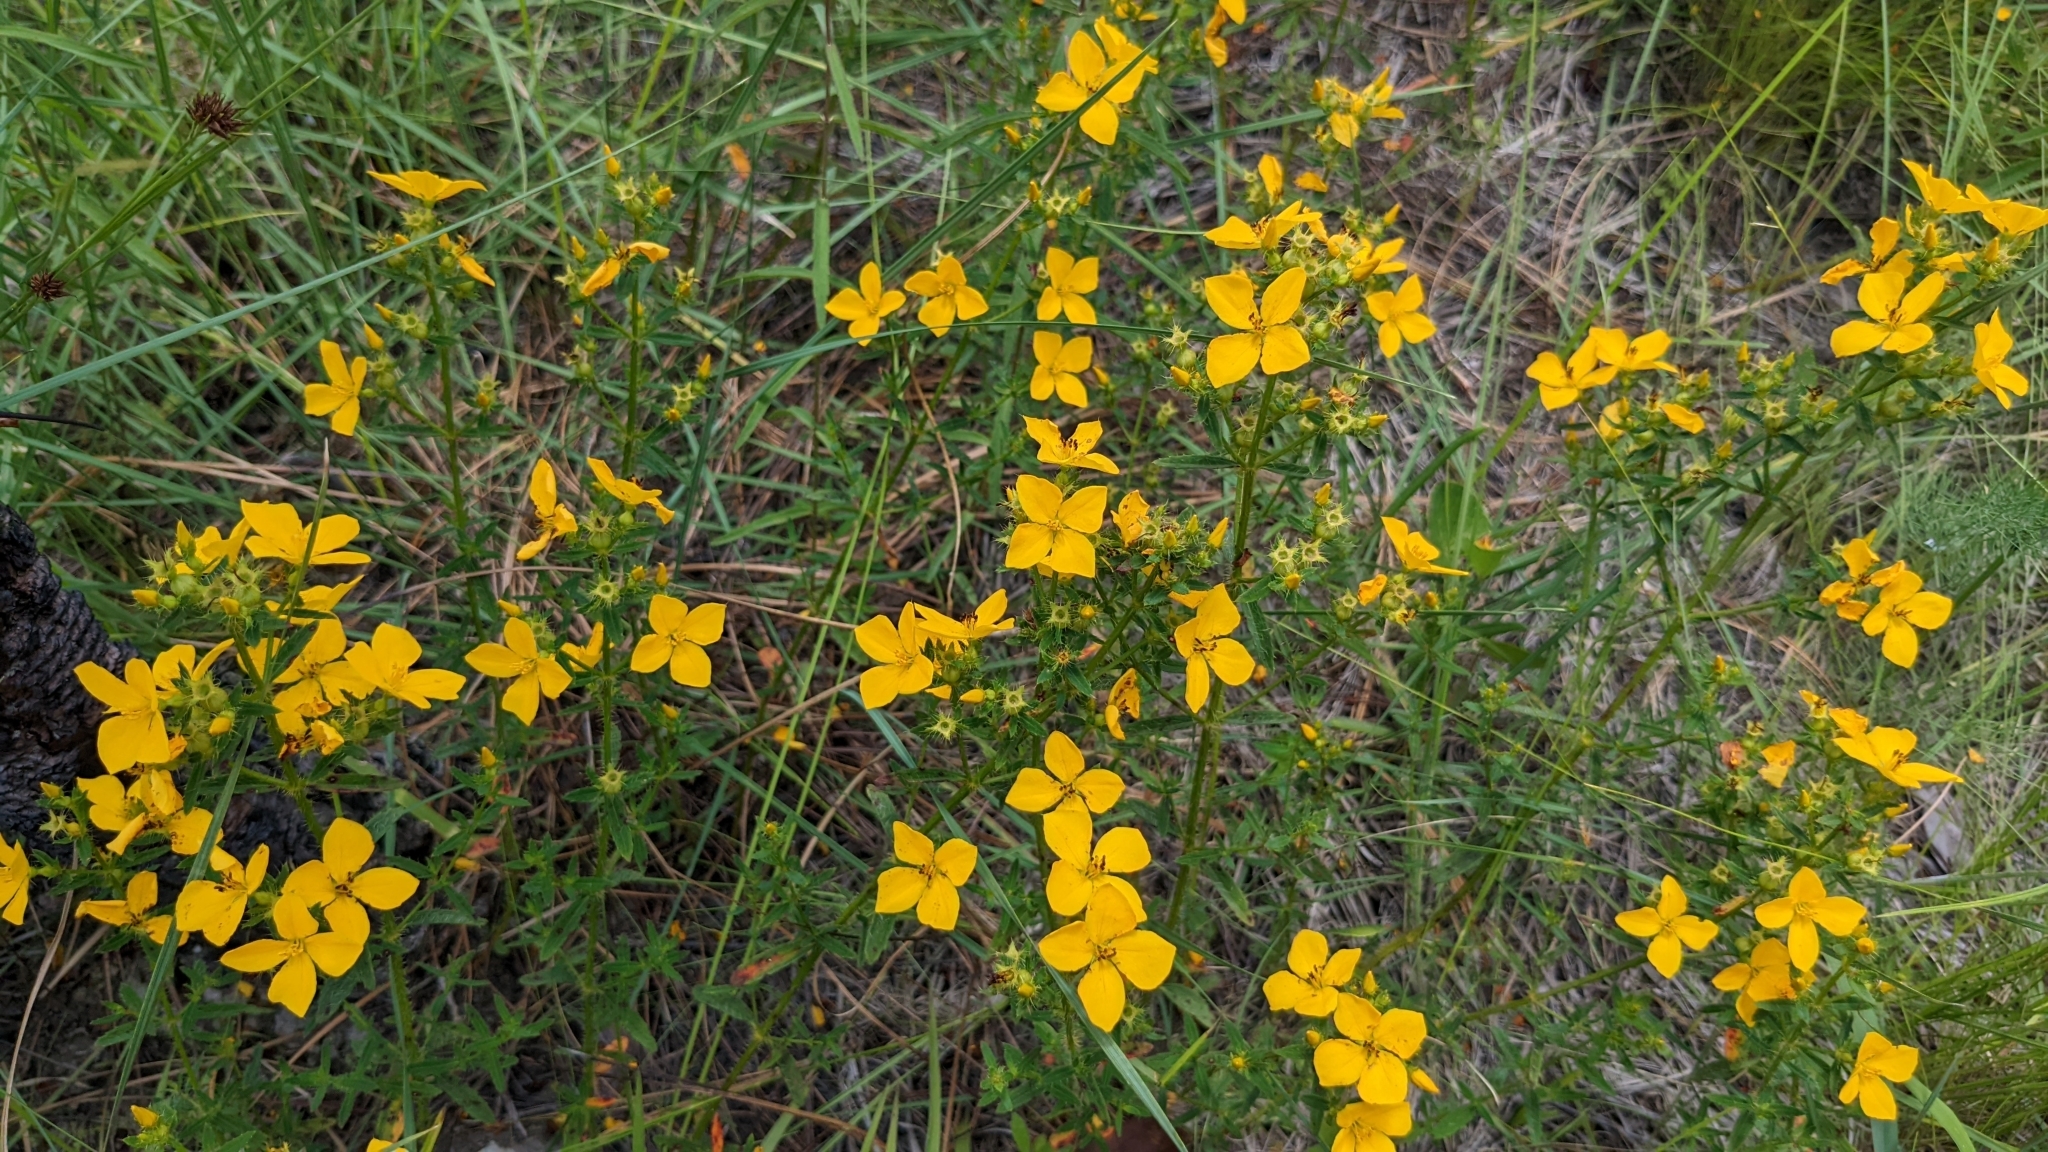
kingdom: Plantae
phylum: Tracheophyta
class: Magnoliopsida
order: Myrtales
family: Melastomataceae
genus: Rhexia
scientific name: Rhexia lutea
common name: Golden meadow-beauty
